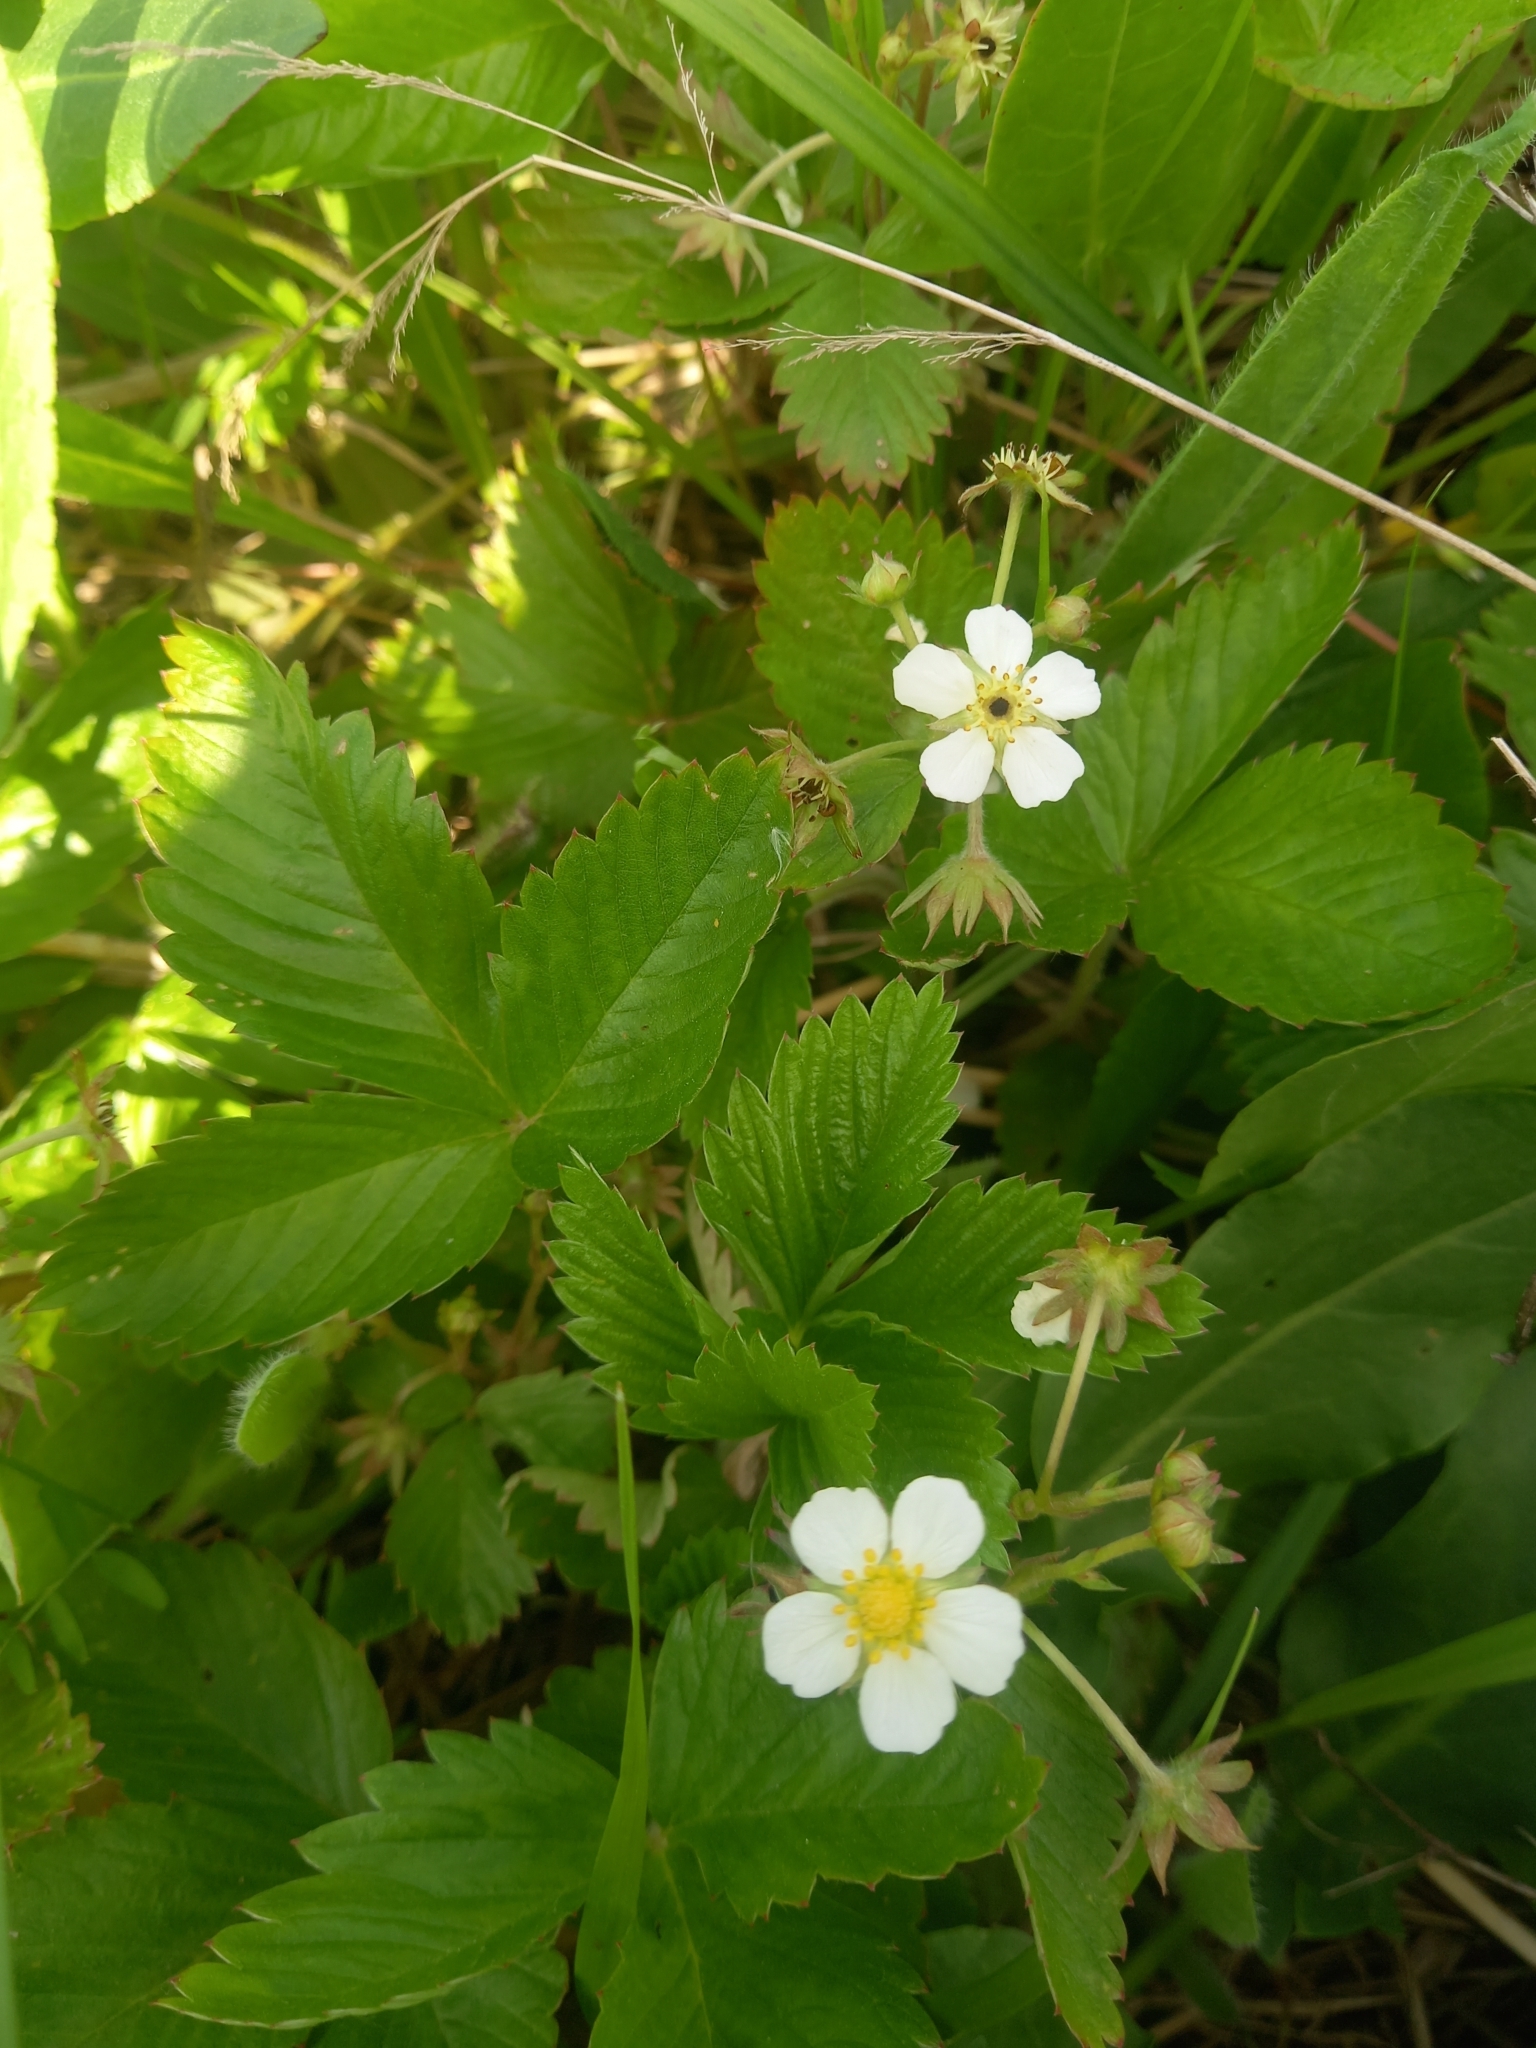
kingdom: Plantae
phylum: Tracheophyta
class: Magnoliopsida
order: Rosales
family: Rosaceae
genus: Fragaria
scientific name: Fragaria vesca
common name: Wild strawberry
